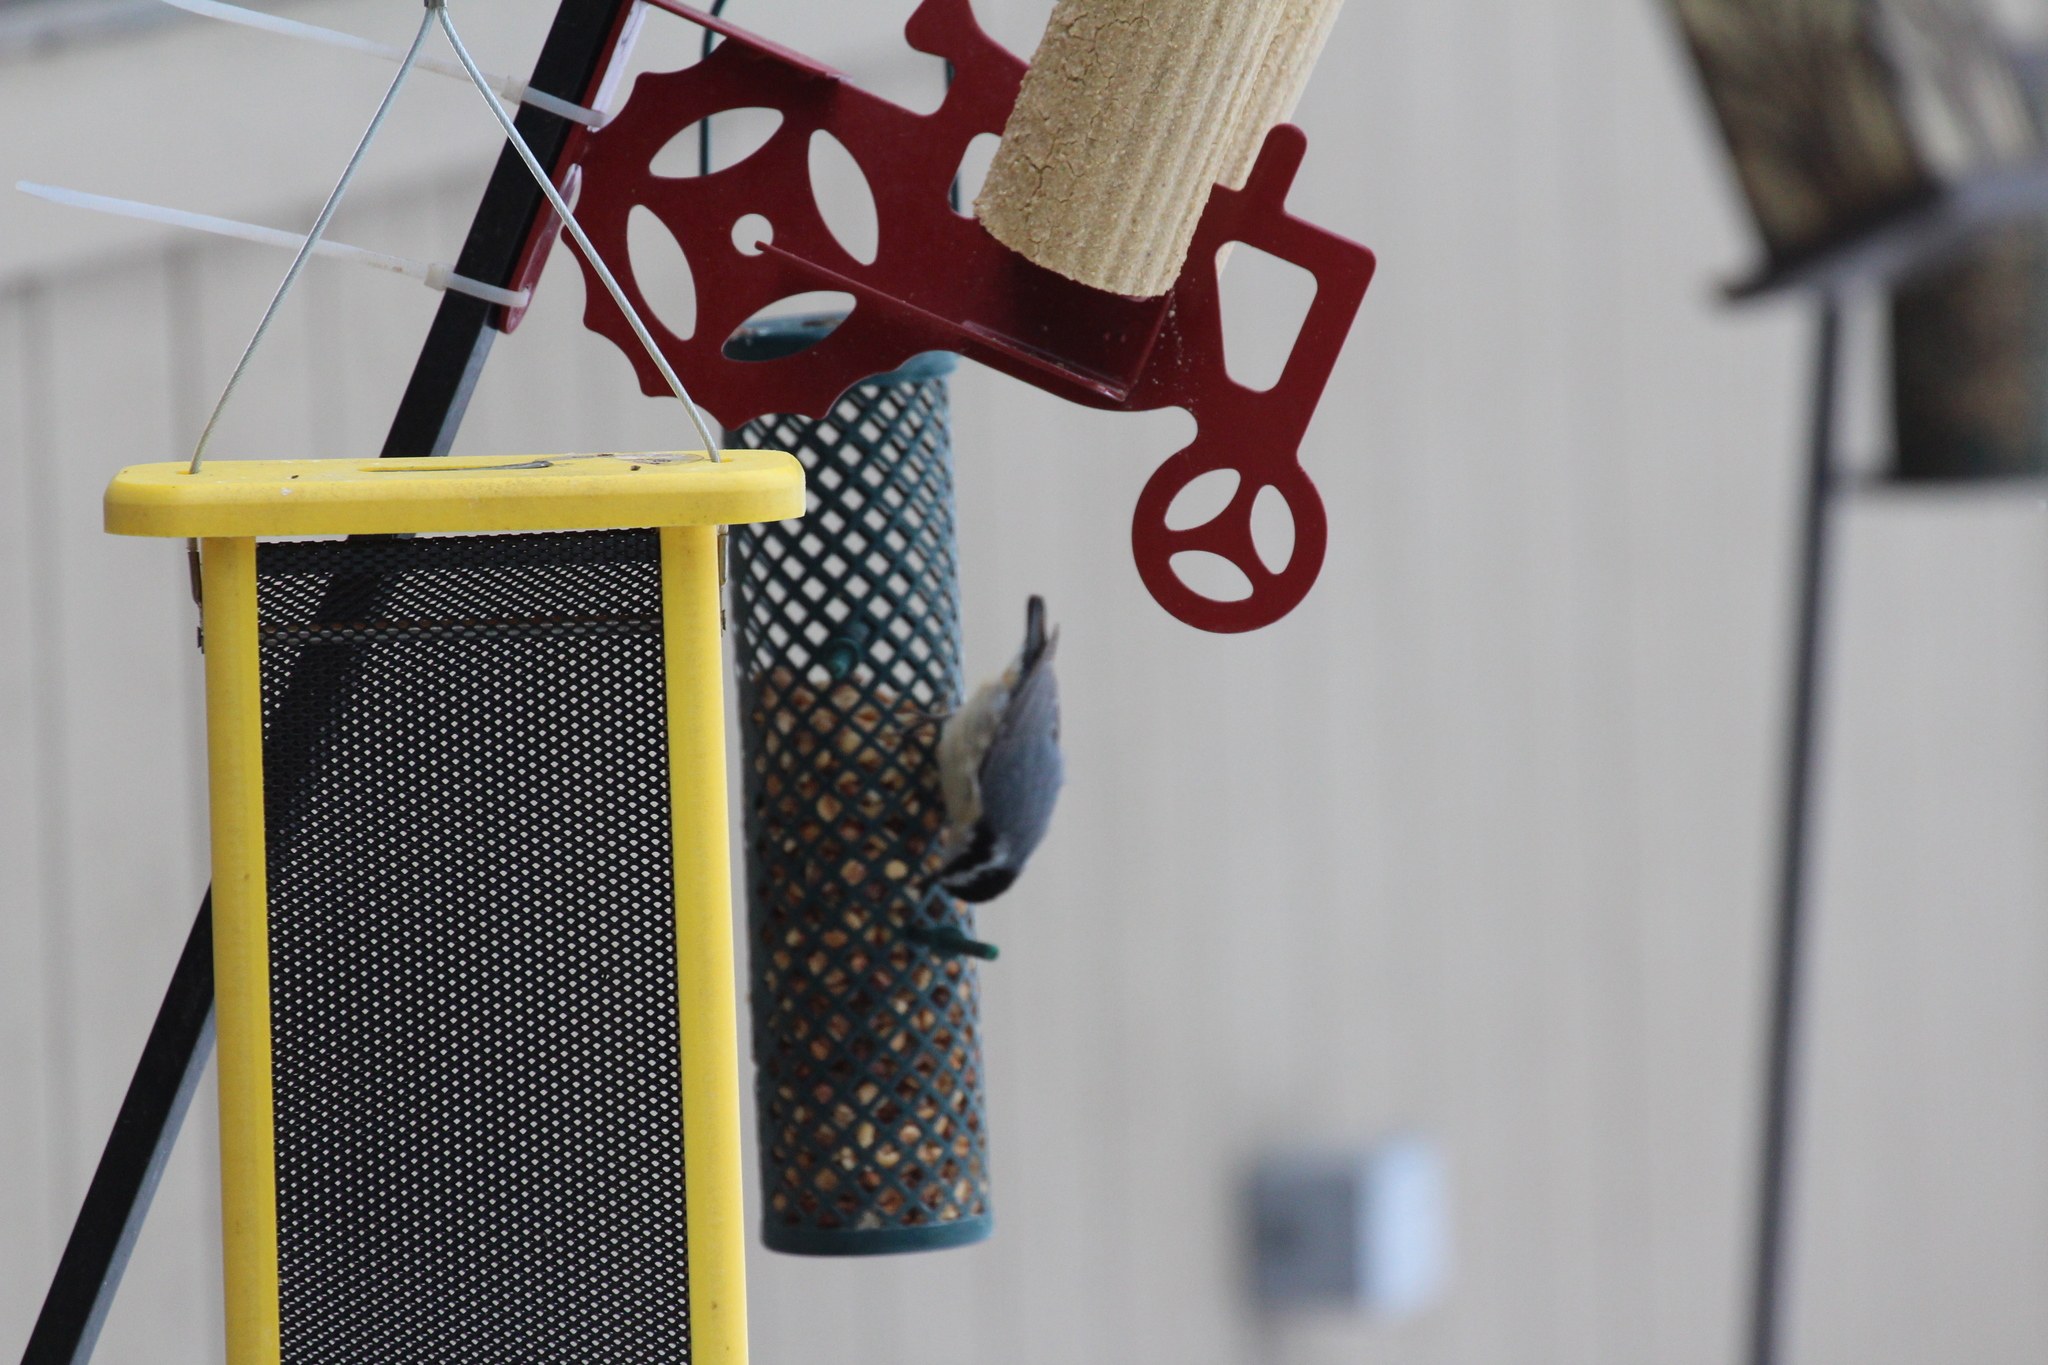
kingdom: Animalia
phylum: Chordata
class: Aves
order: Passeriformes
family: Sittidae
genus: Sitta
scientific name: Sitta canadensis
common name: Red-breasted nuthatch
